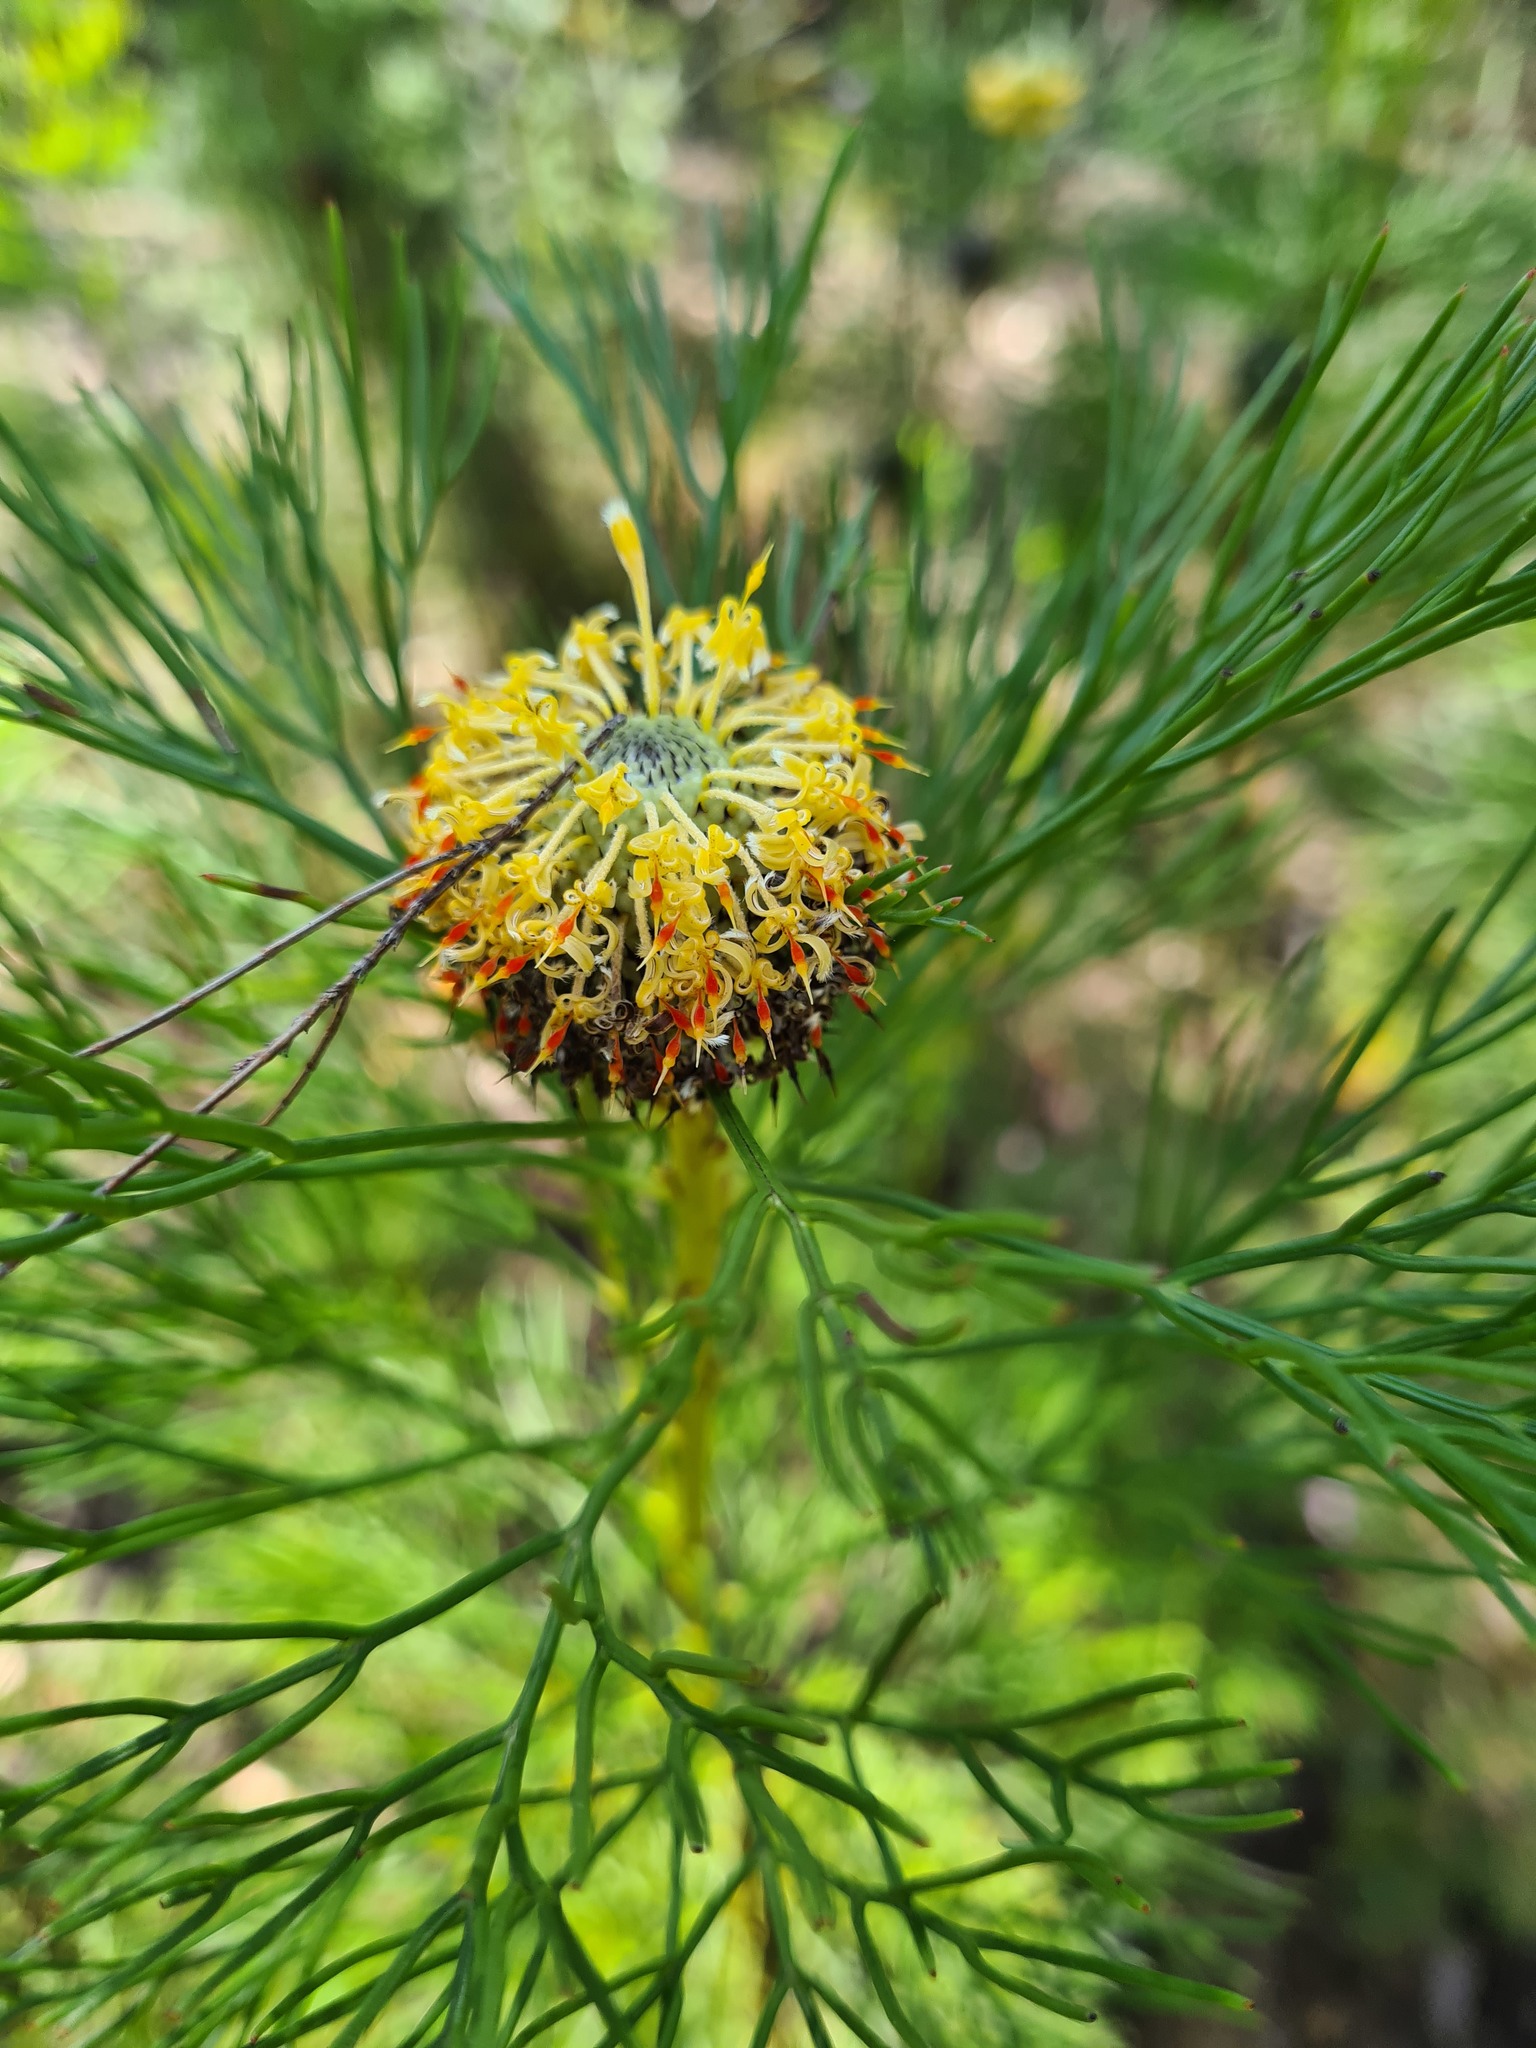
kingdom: Plantae
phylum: Tracheophyta
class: Magnoliopsida
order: Proteales
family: Proteaceae
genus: Isopogon
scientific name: Isopogon anethifolius
